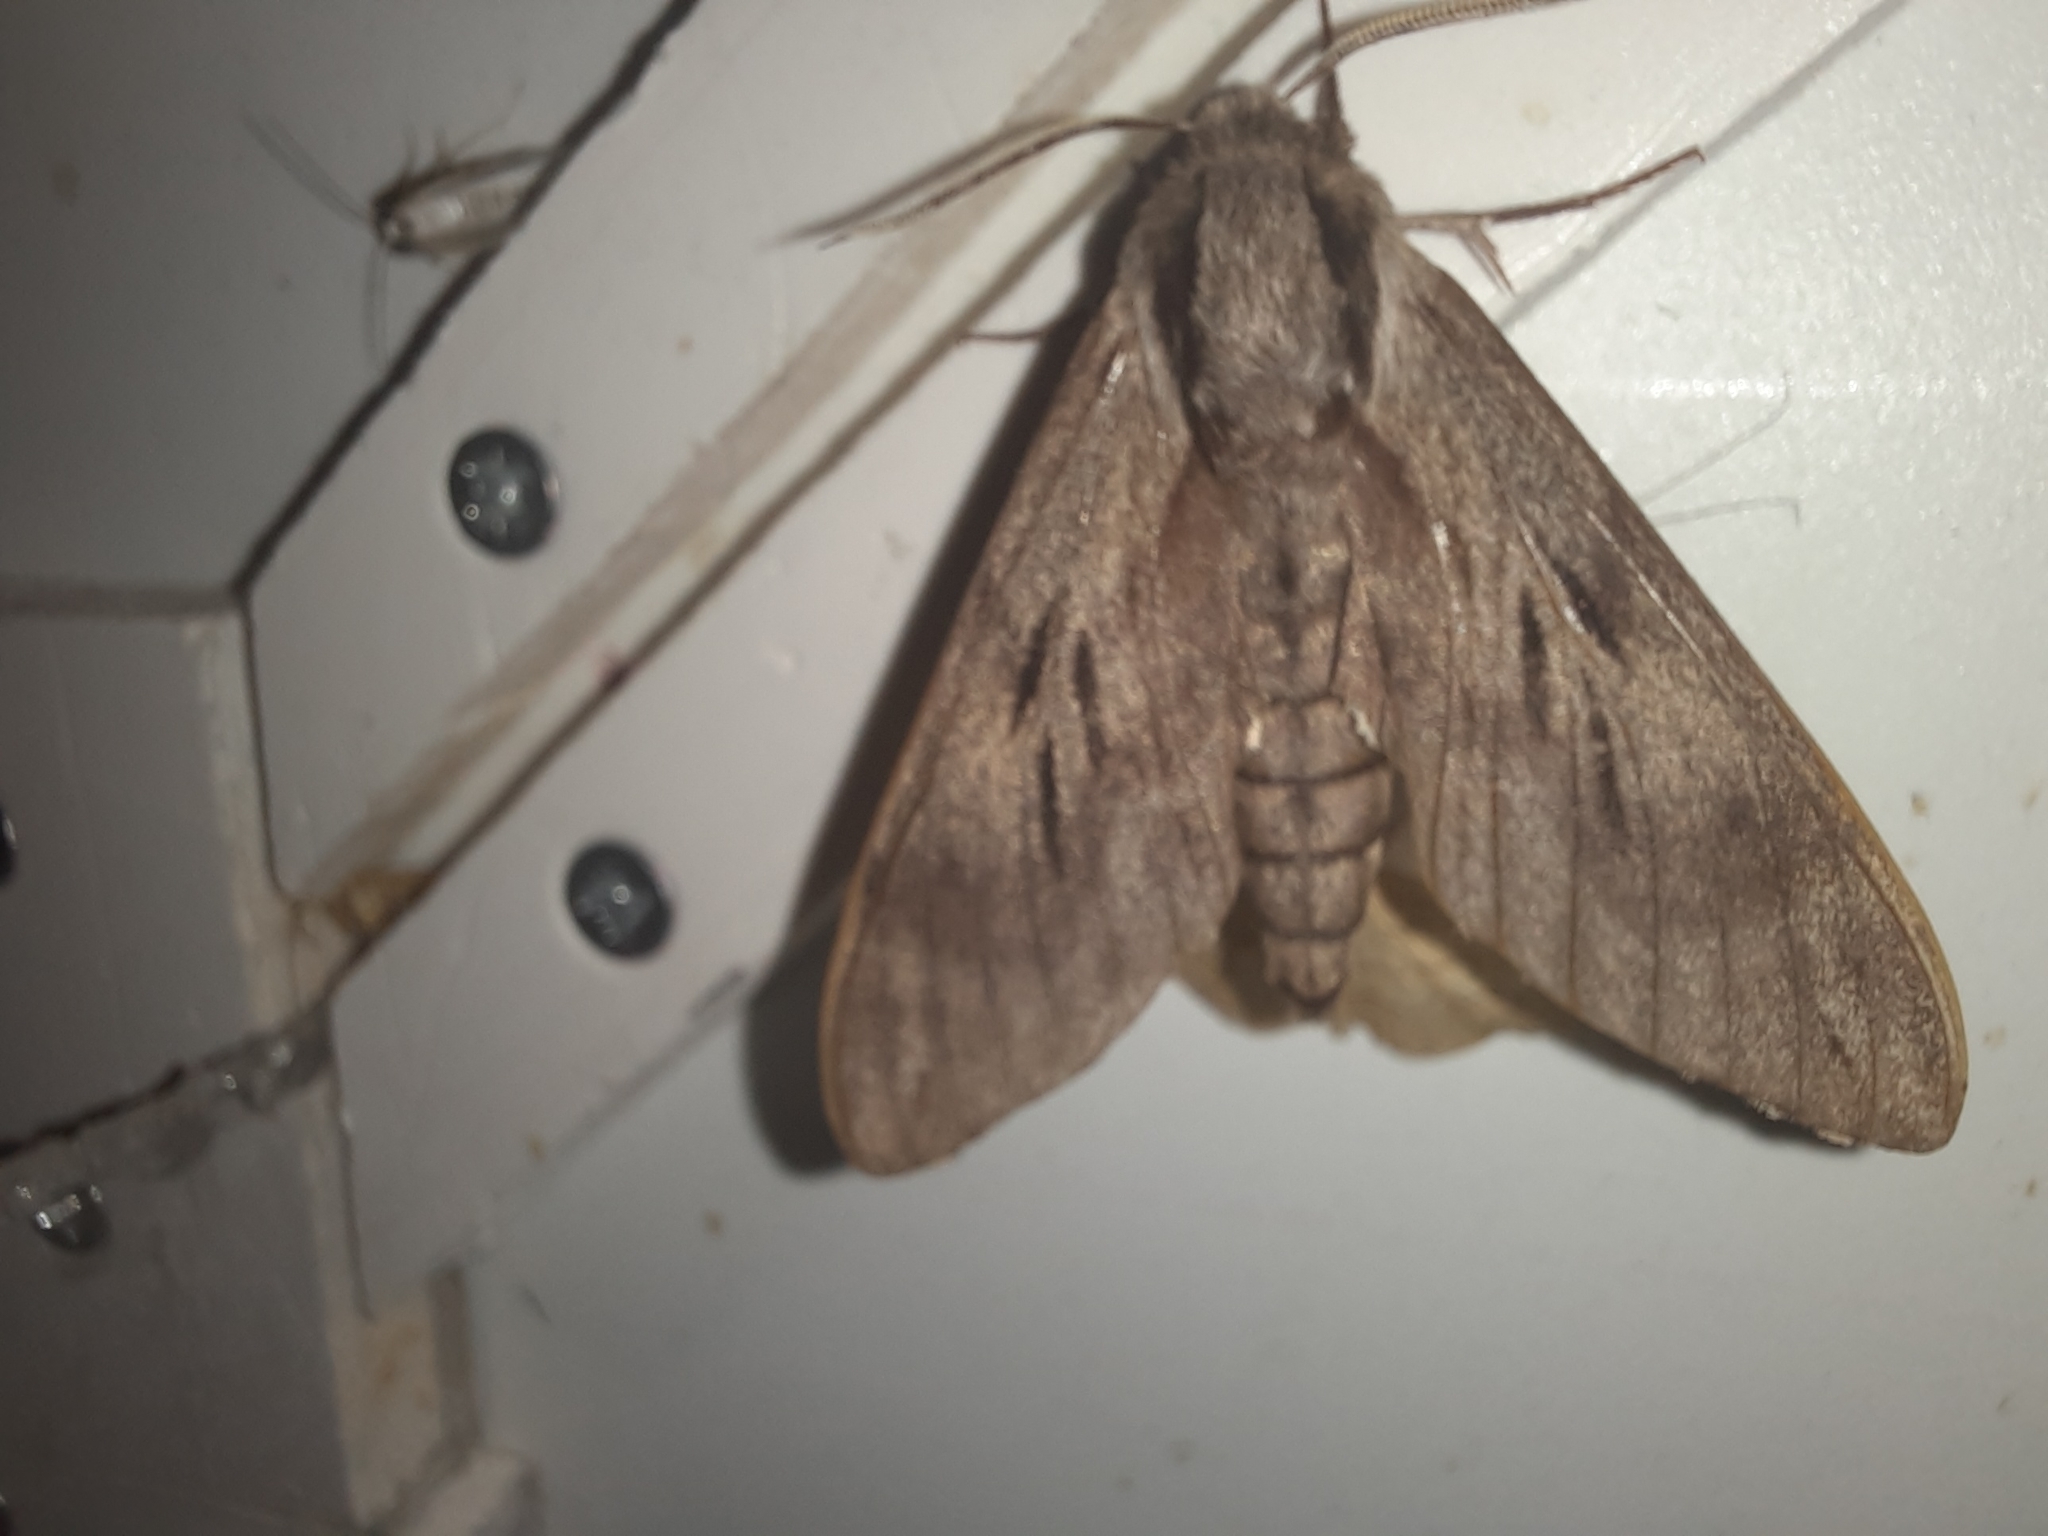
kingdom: Animalia
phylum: Arthropoda
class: Insecta
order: Lepidoptera
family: Sphingidae
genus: Sphinx
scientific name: Sphinx pinastri
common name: Pine hawk-moth
